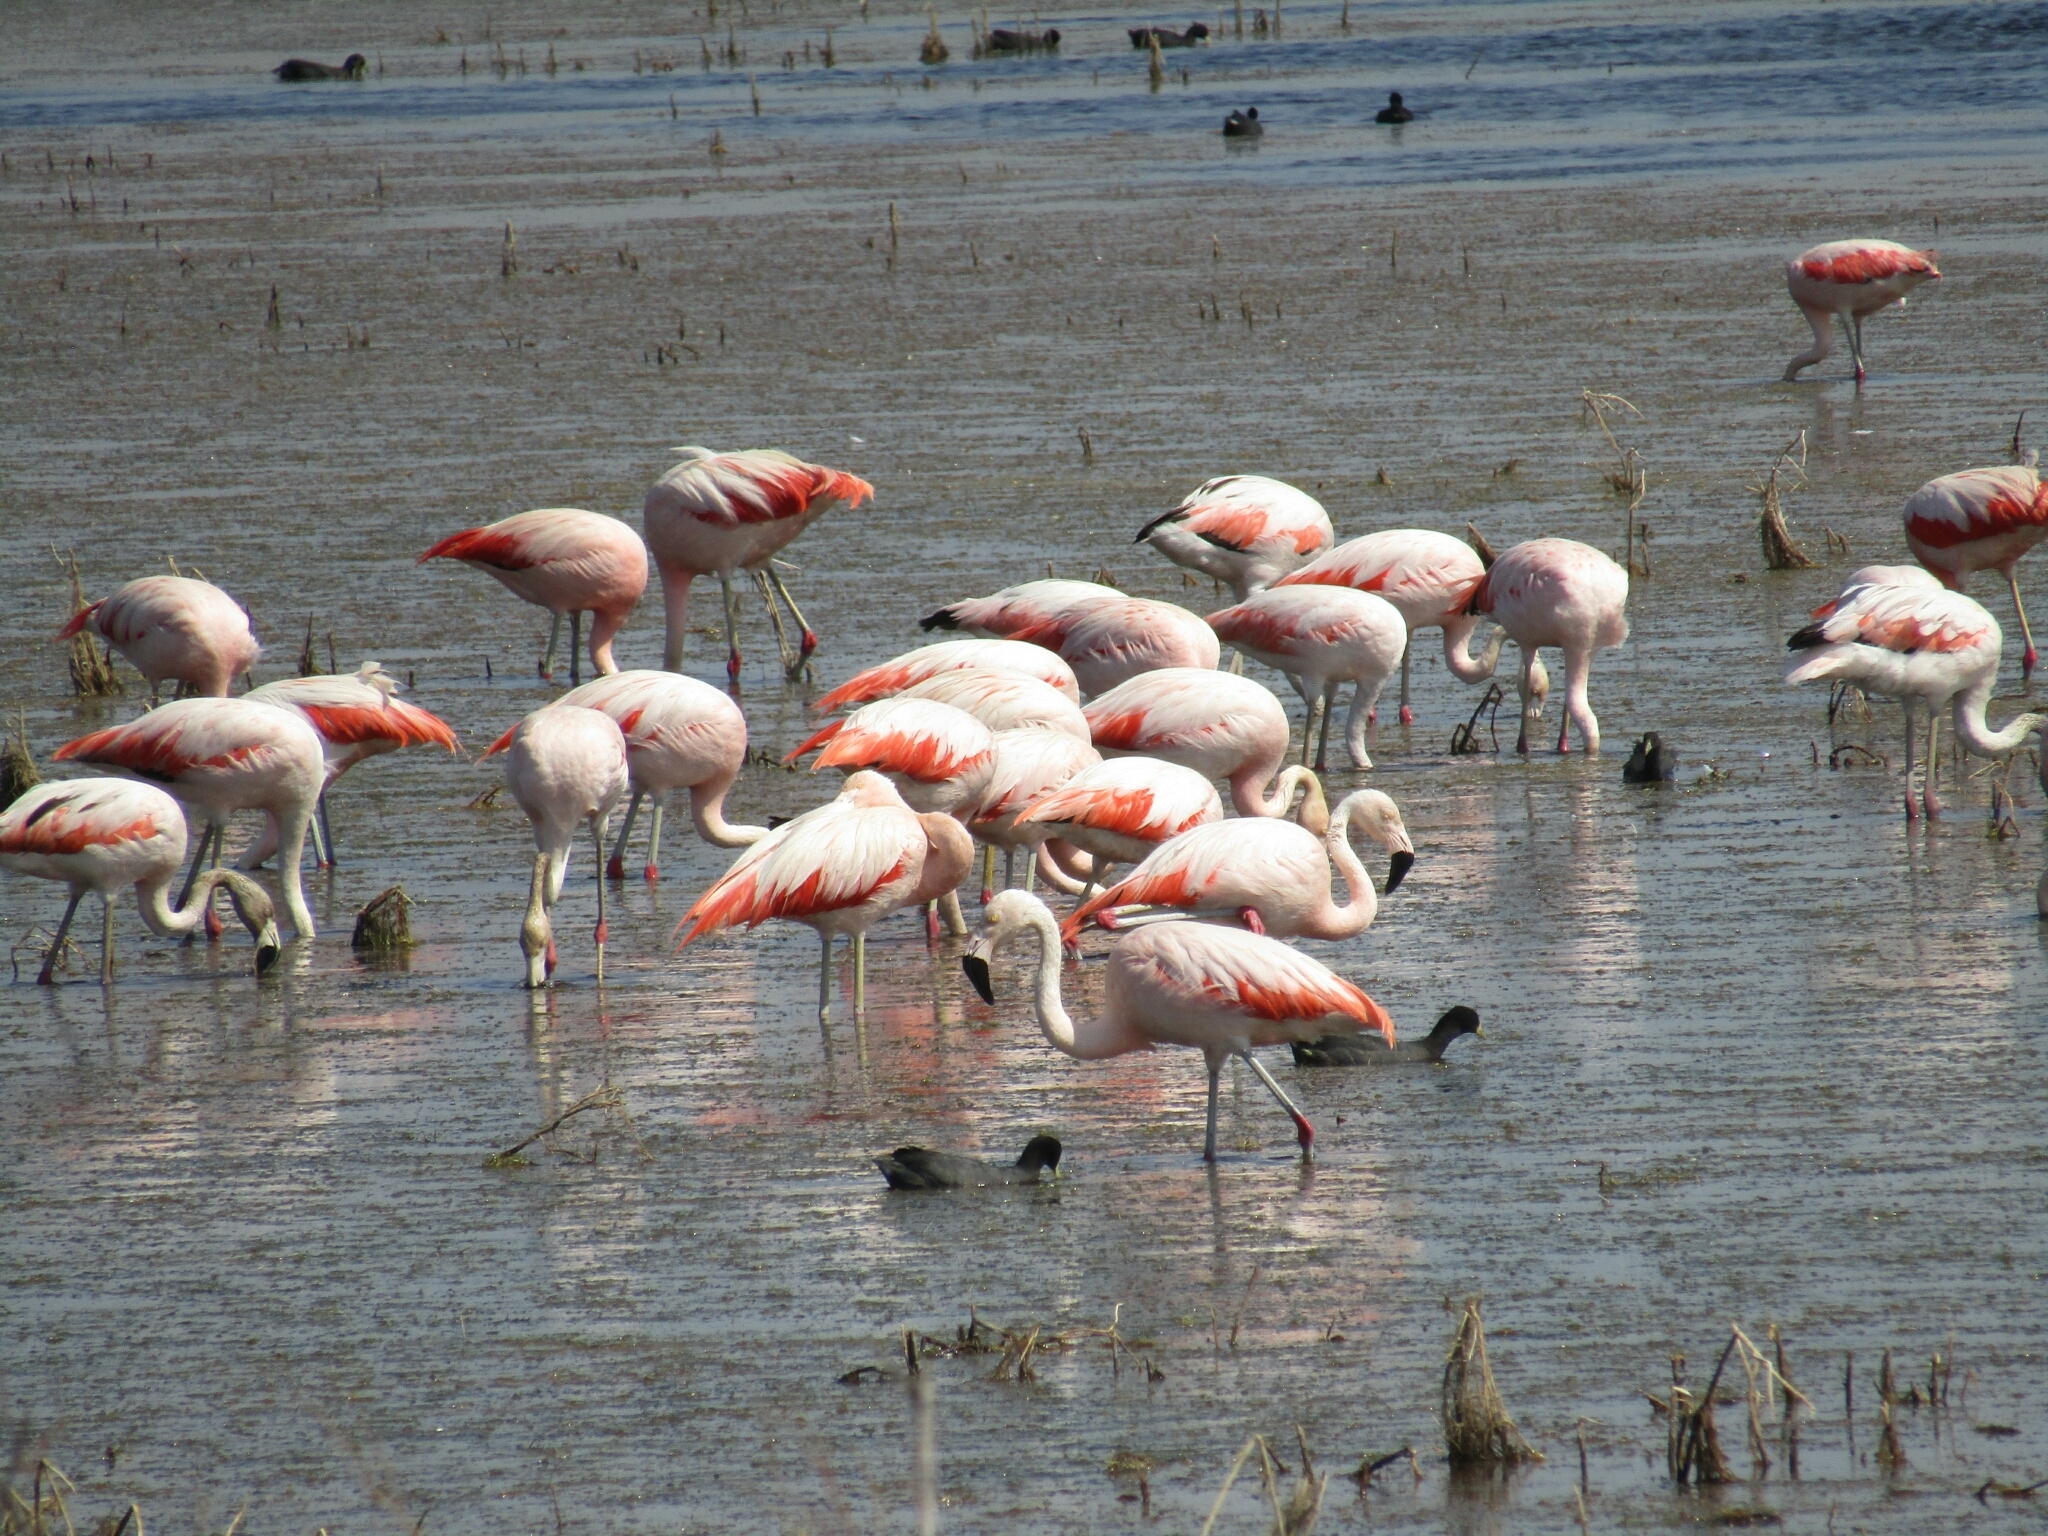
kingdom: Animalia
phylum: Chordata
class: Aves
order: Phoenicopteriformes
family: Phoenicopteridae
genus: Phoenicopterus
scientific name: Phoenicopterus chilensis
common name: Chilean flamingo
